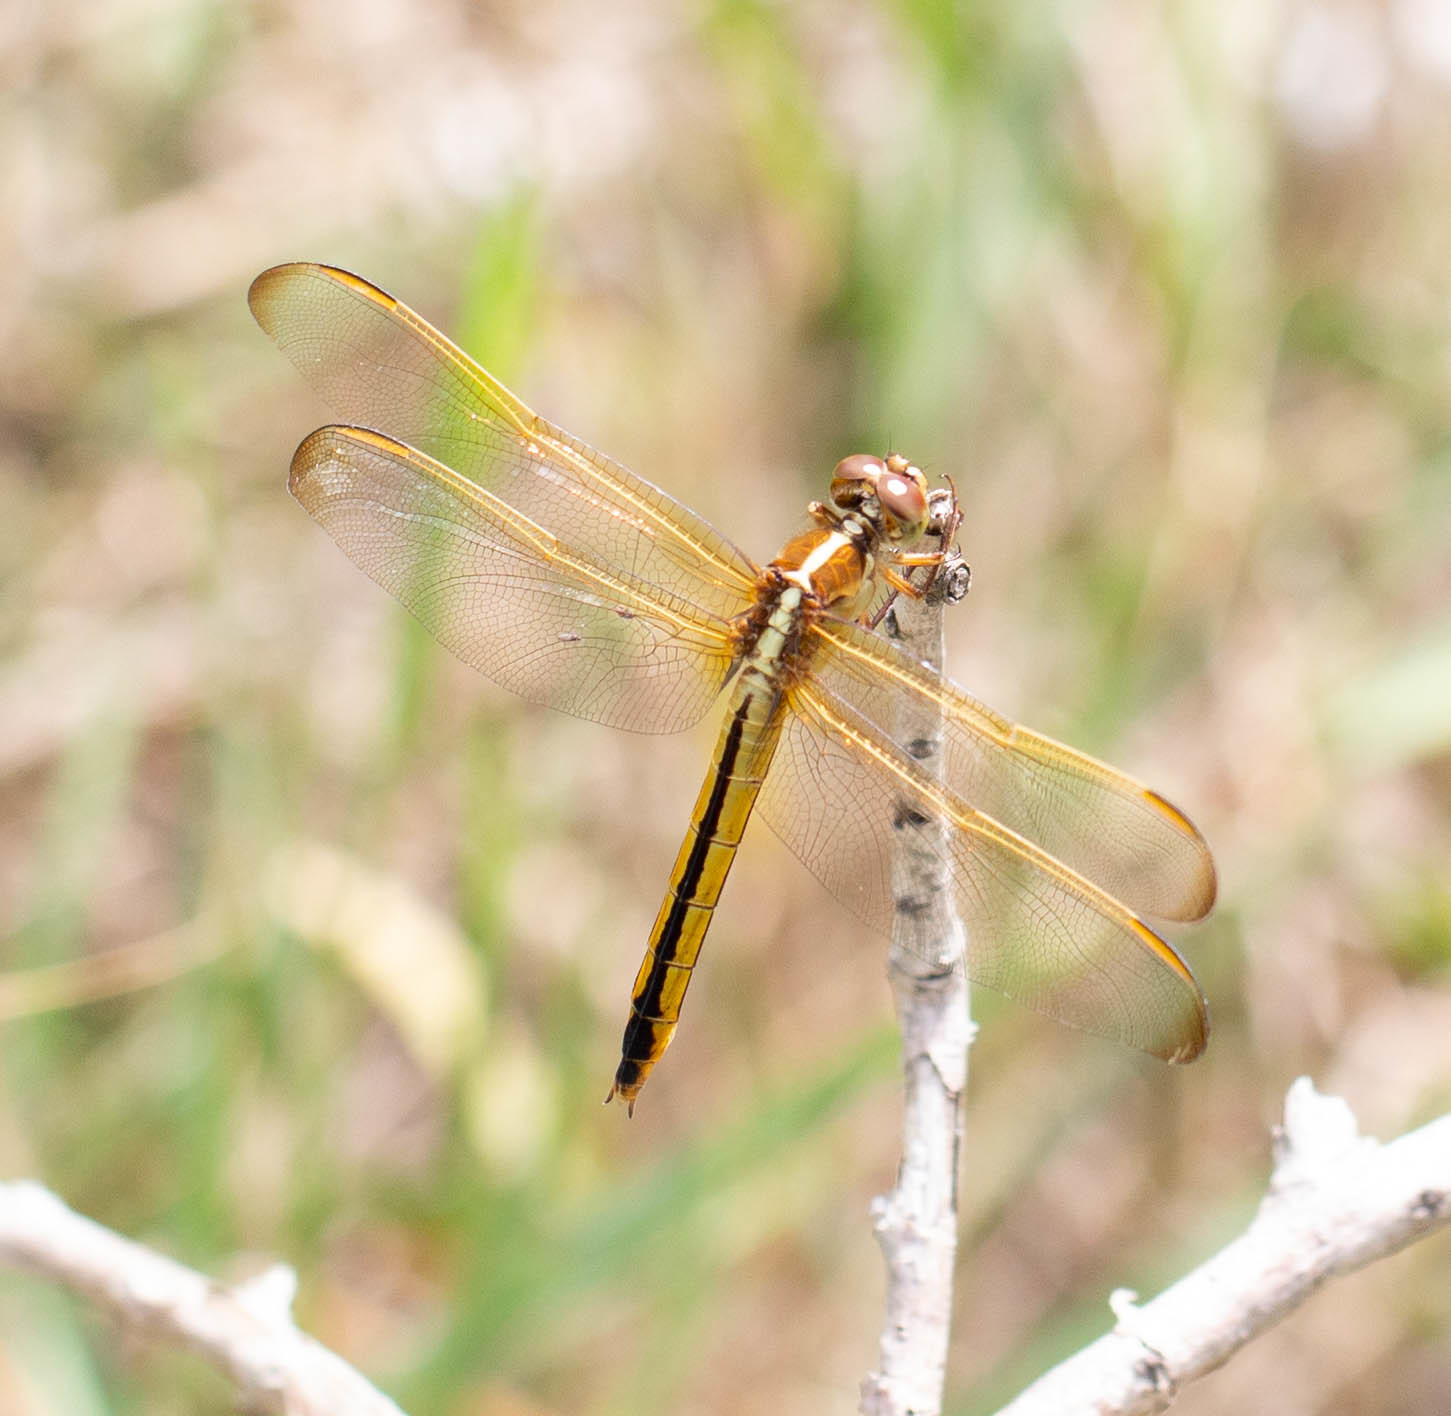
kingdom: Animalia
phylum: Arthropoda
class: Insecta
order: Odonata
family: Libellulidae
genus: Libellula
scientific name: Libellula needhami
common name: Needham's skimmer
